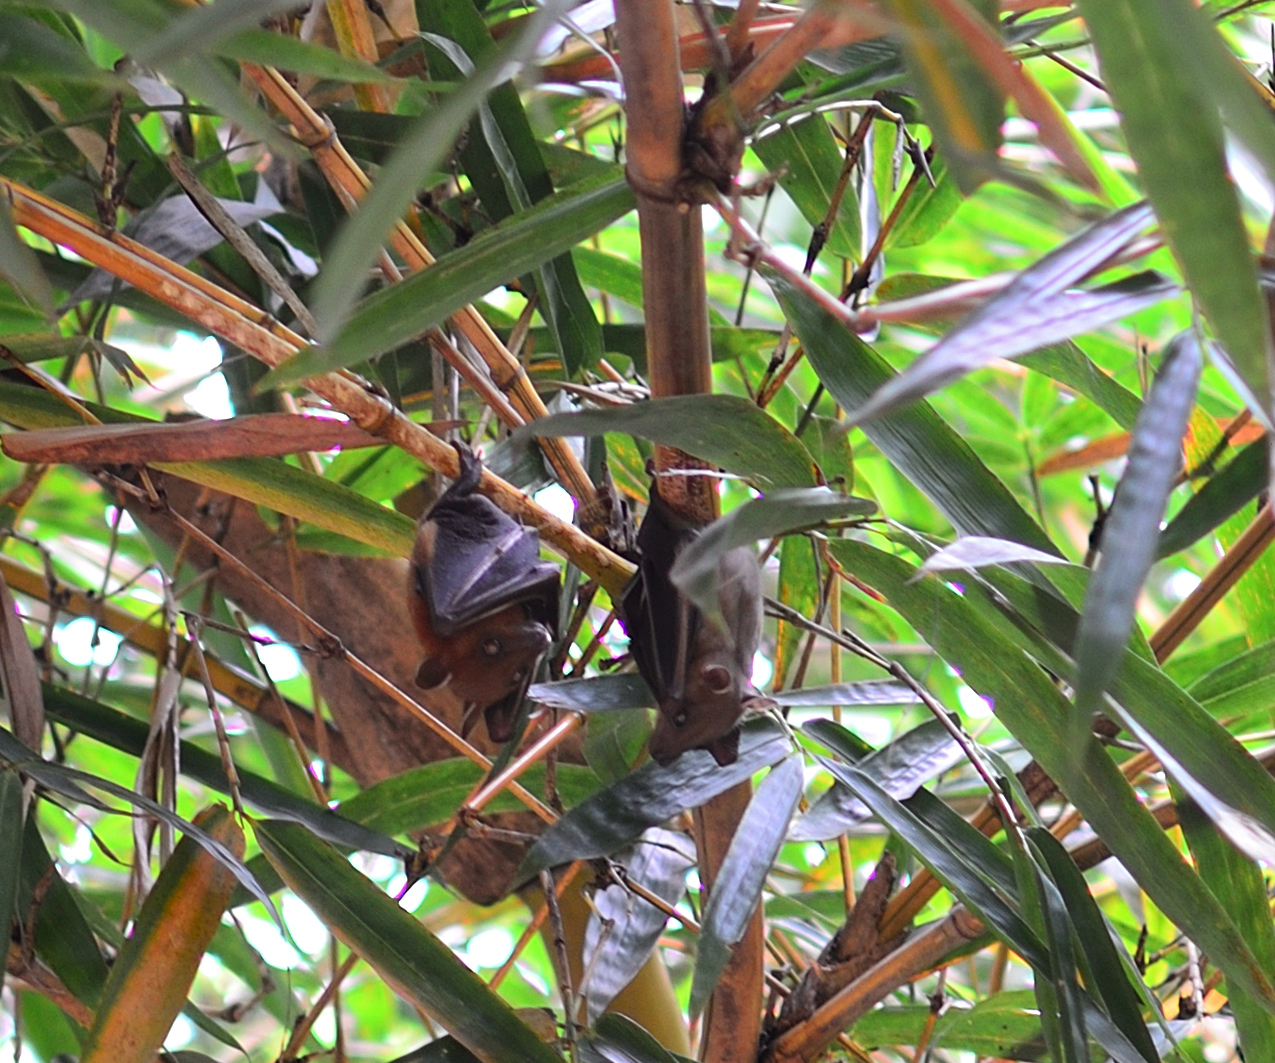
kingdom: Animalia
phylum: Chordata
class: Mammalia
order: Chiroptera
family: Pteropodidae
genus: Cynopterus
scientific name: Cynopterus sphinx
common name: Greater short-nosed fruit bat
